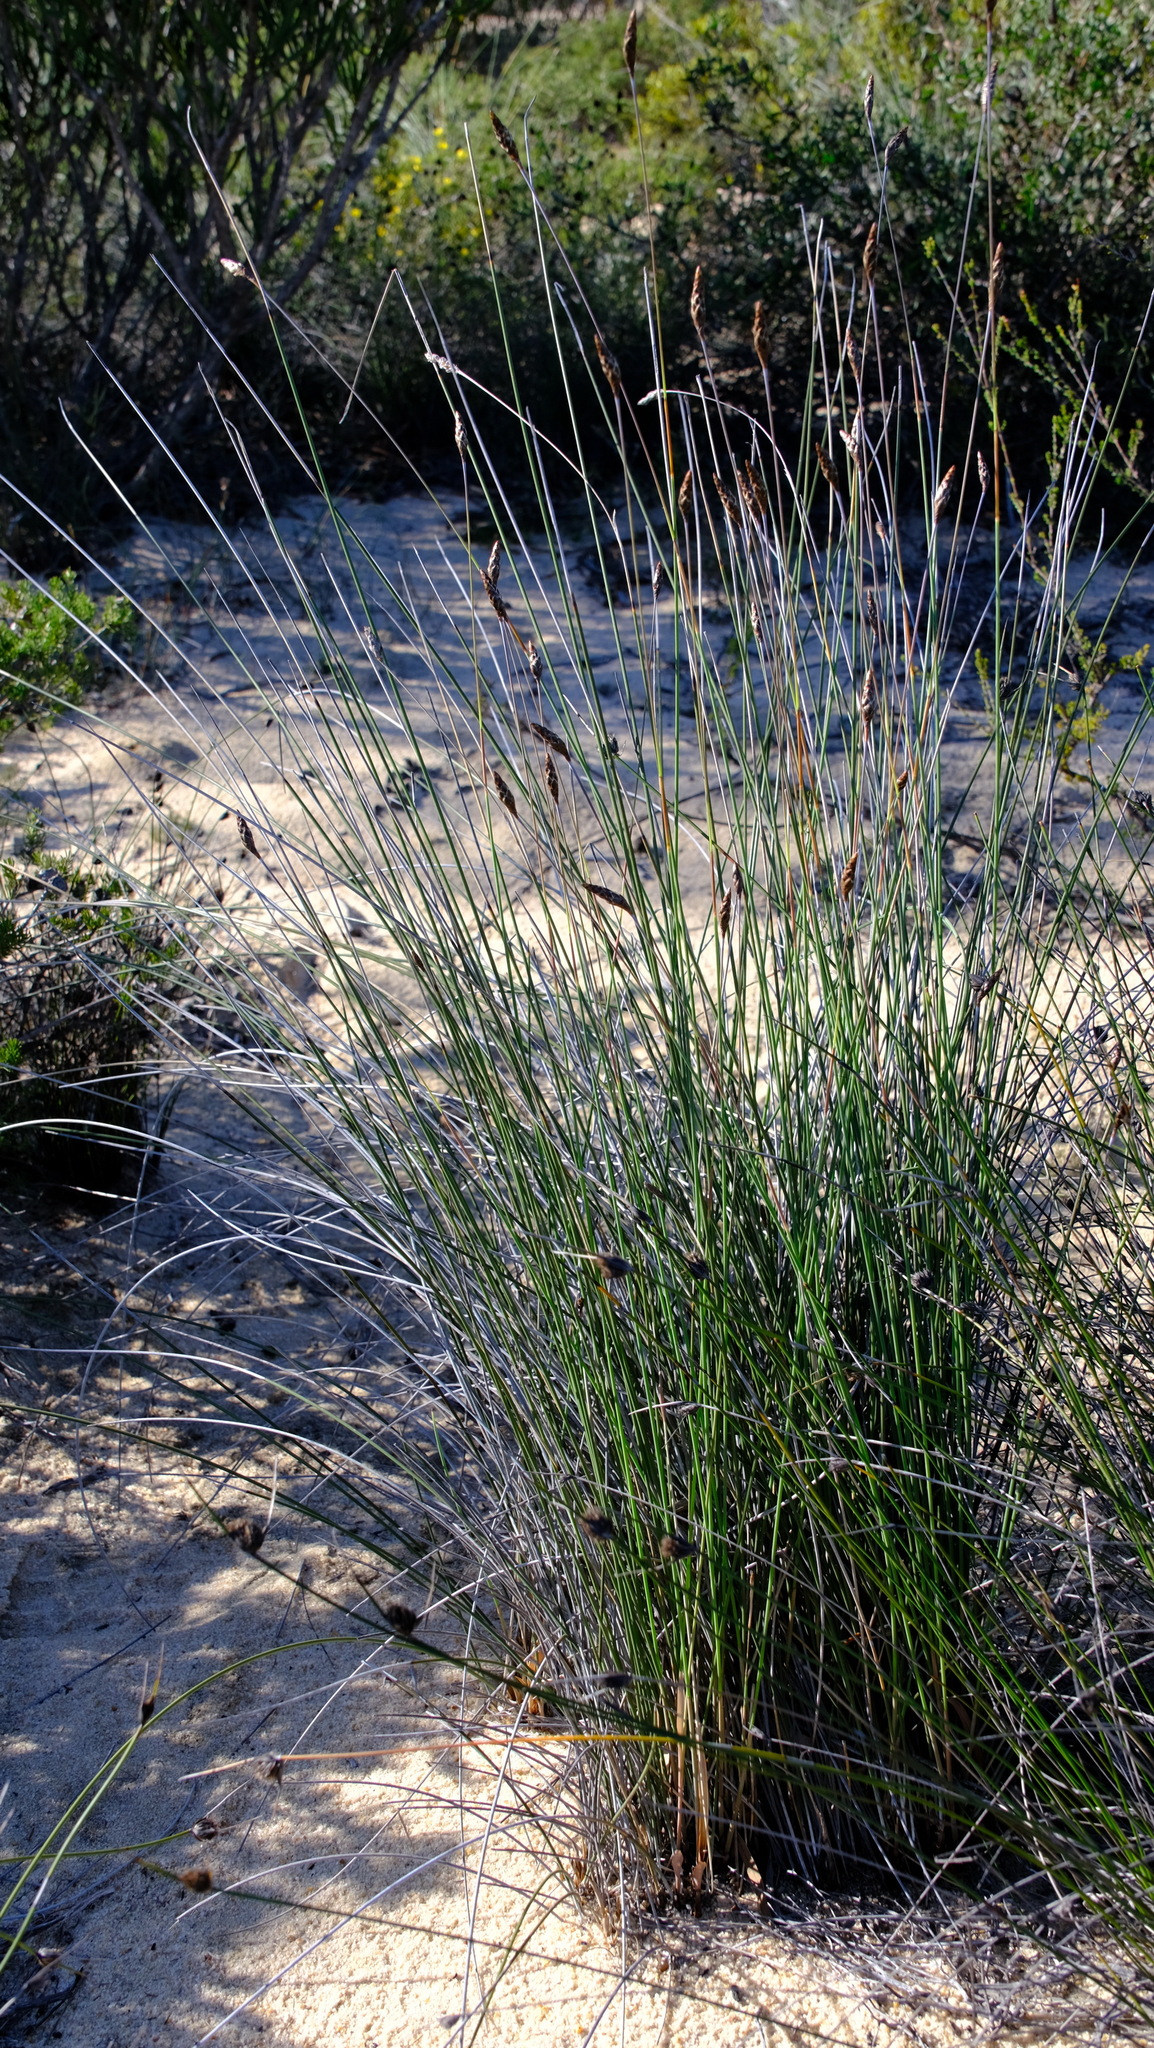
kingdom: Plantae
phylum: Tracheophyta
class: Liliopsida
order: Poales
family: Ecdeiocoleaceae
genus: Ecdeiocolea
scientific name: Ecdeiocolea rigens
